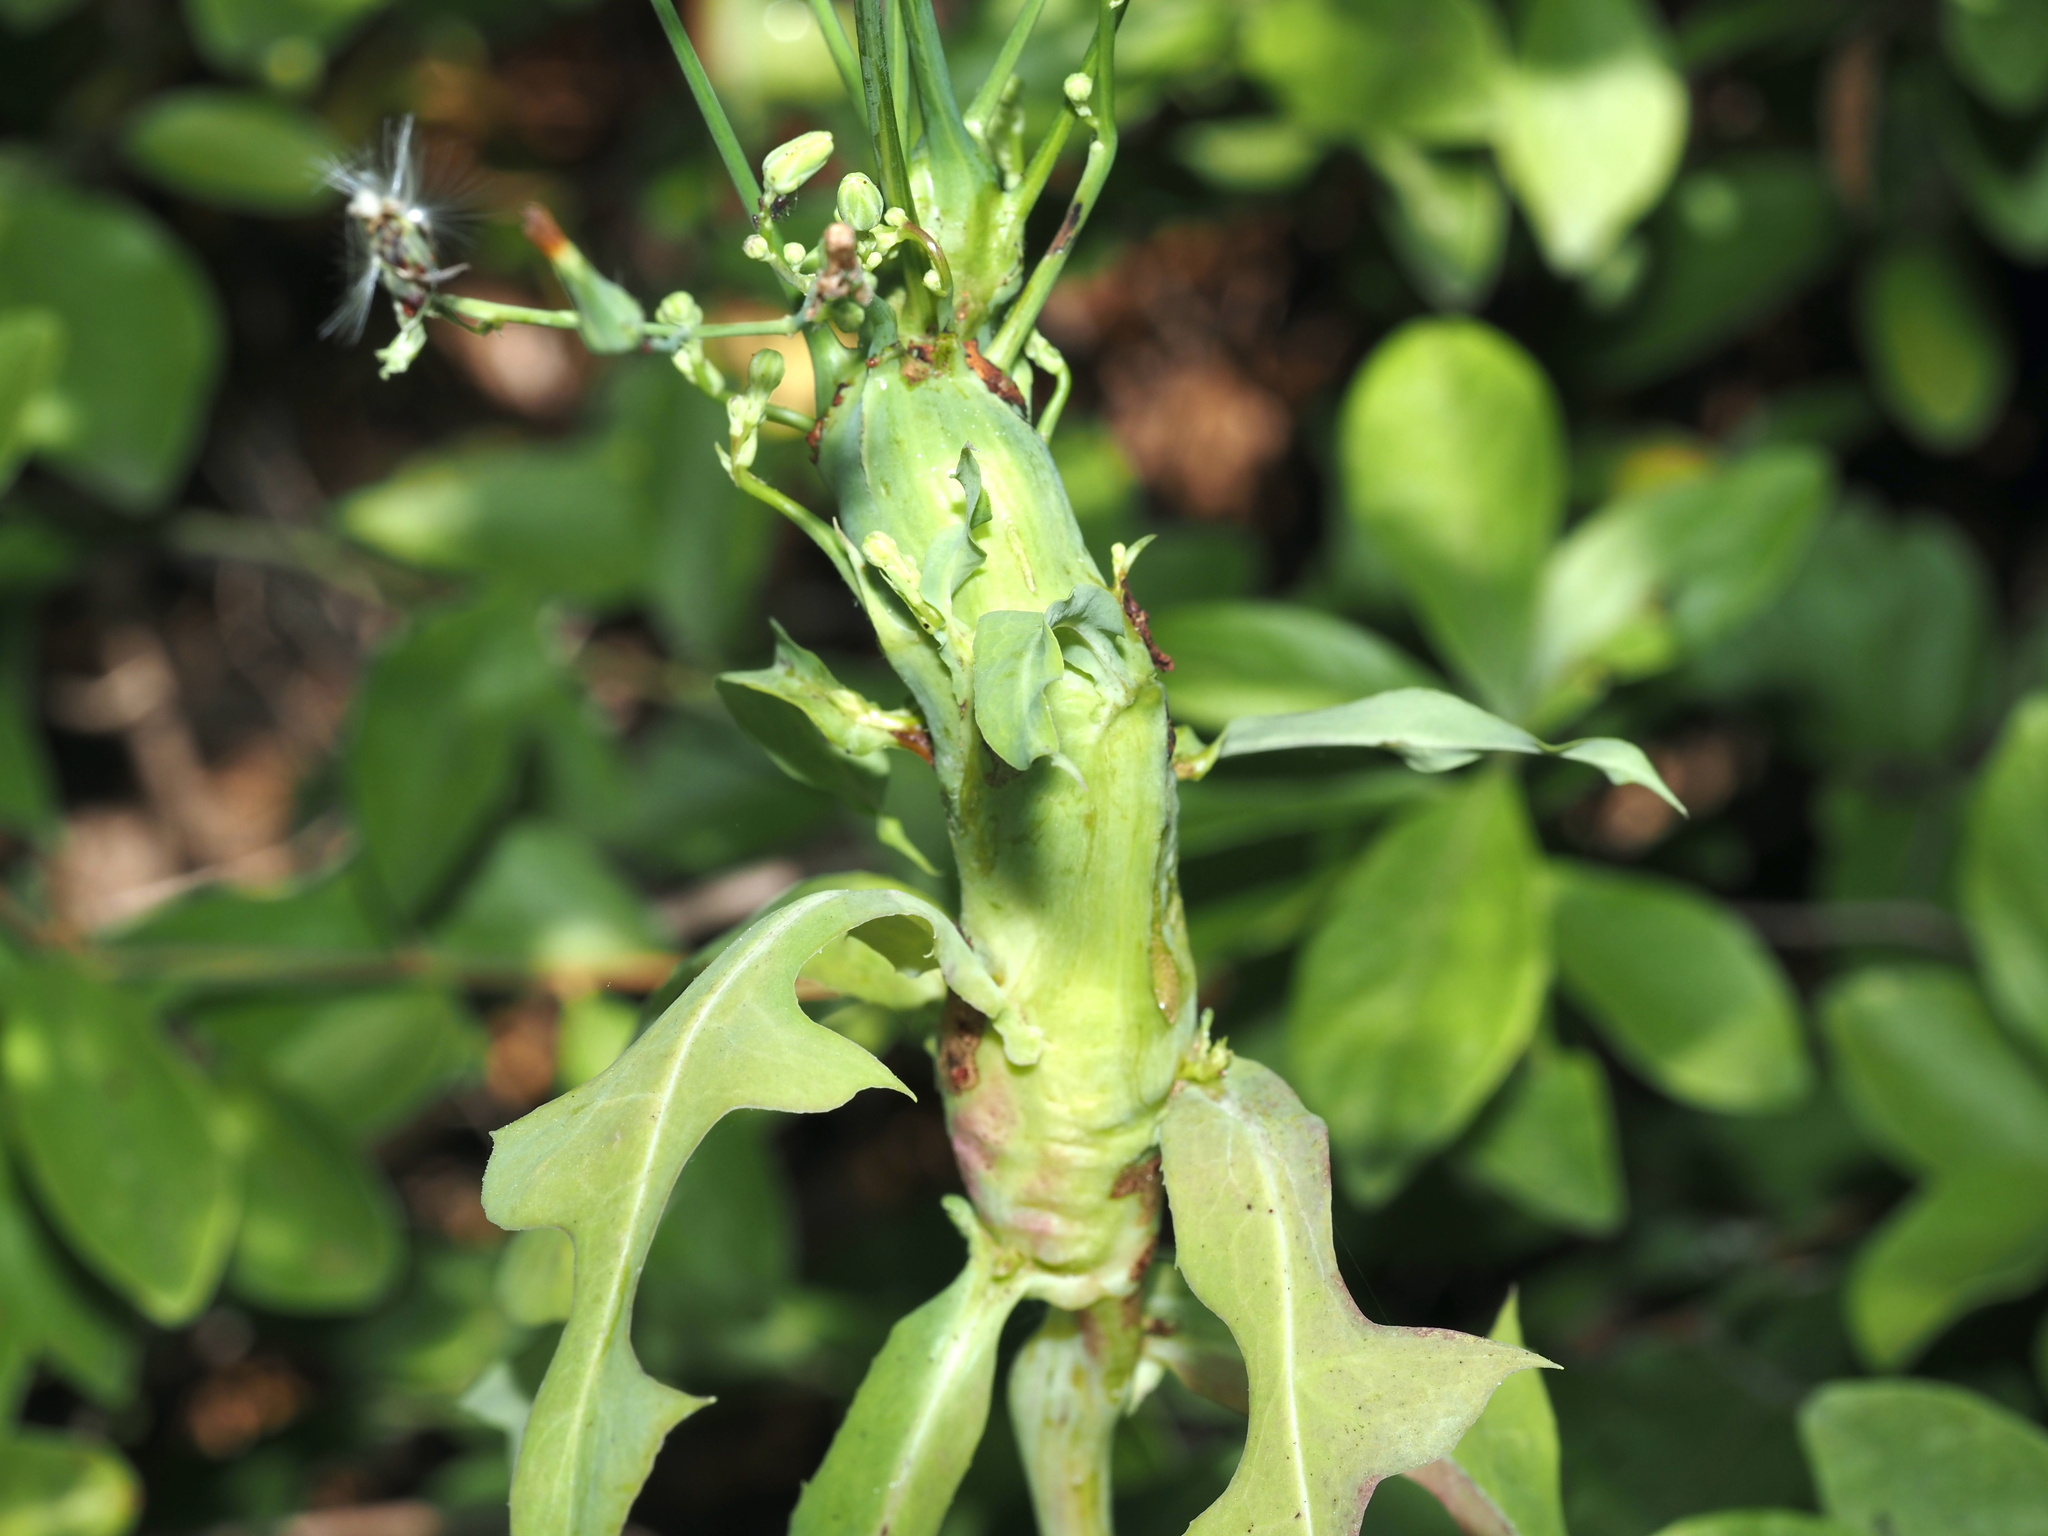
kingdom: Animalia
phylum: Arthropoda
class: Insecta
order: Hymenoptera
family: Cynipidae
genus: Aulacidea
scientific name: Aulacidea
